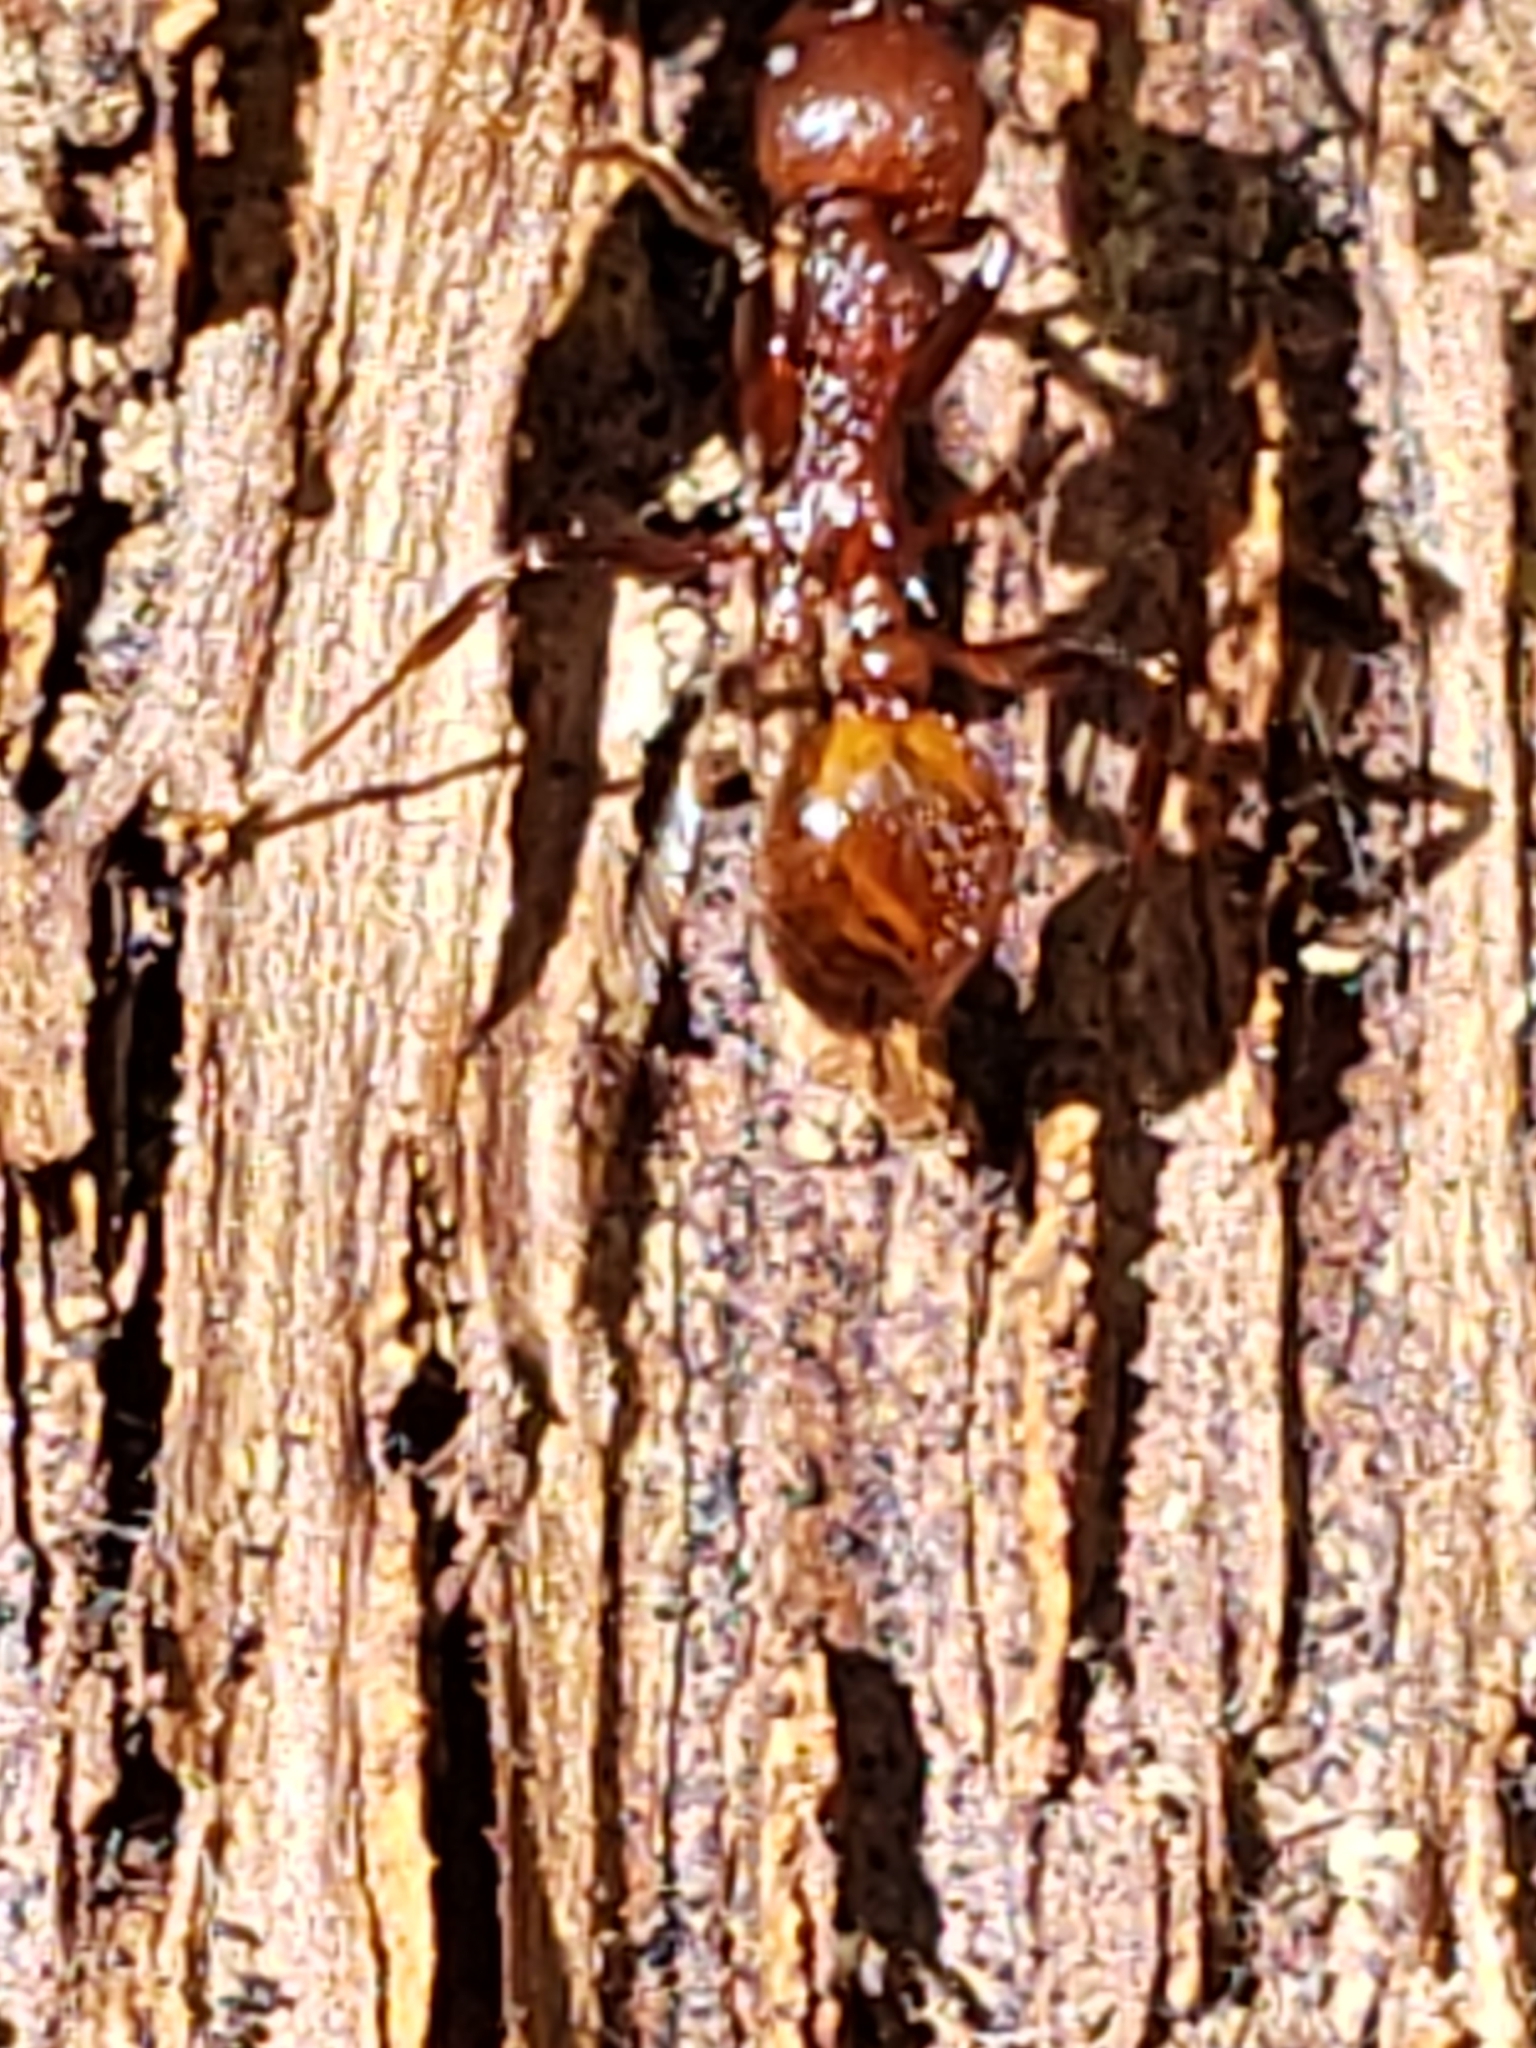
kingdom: Animalia
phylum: Arthropoda
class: Insecta
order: Hymenoptera
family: Formicidae
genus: Aphaenogaster
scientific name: Aphaenogaster tennesseensis
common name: Tennessee thread-waisted ant
